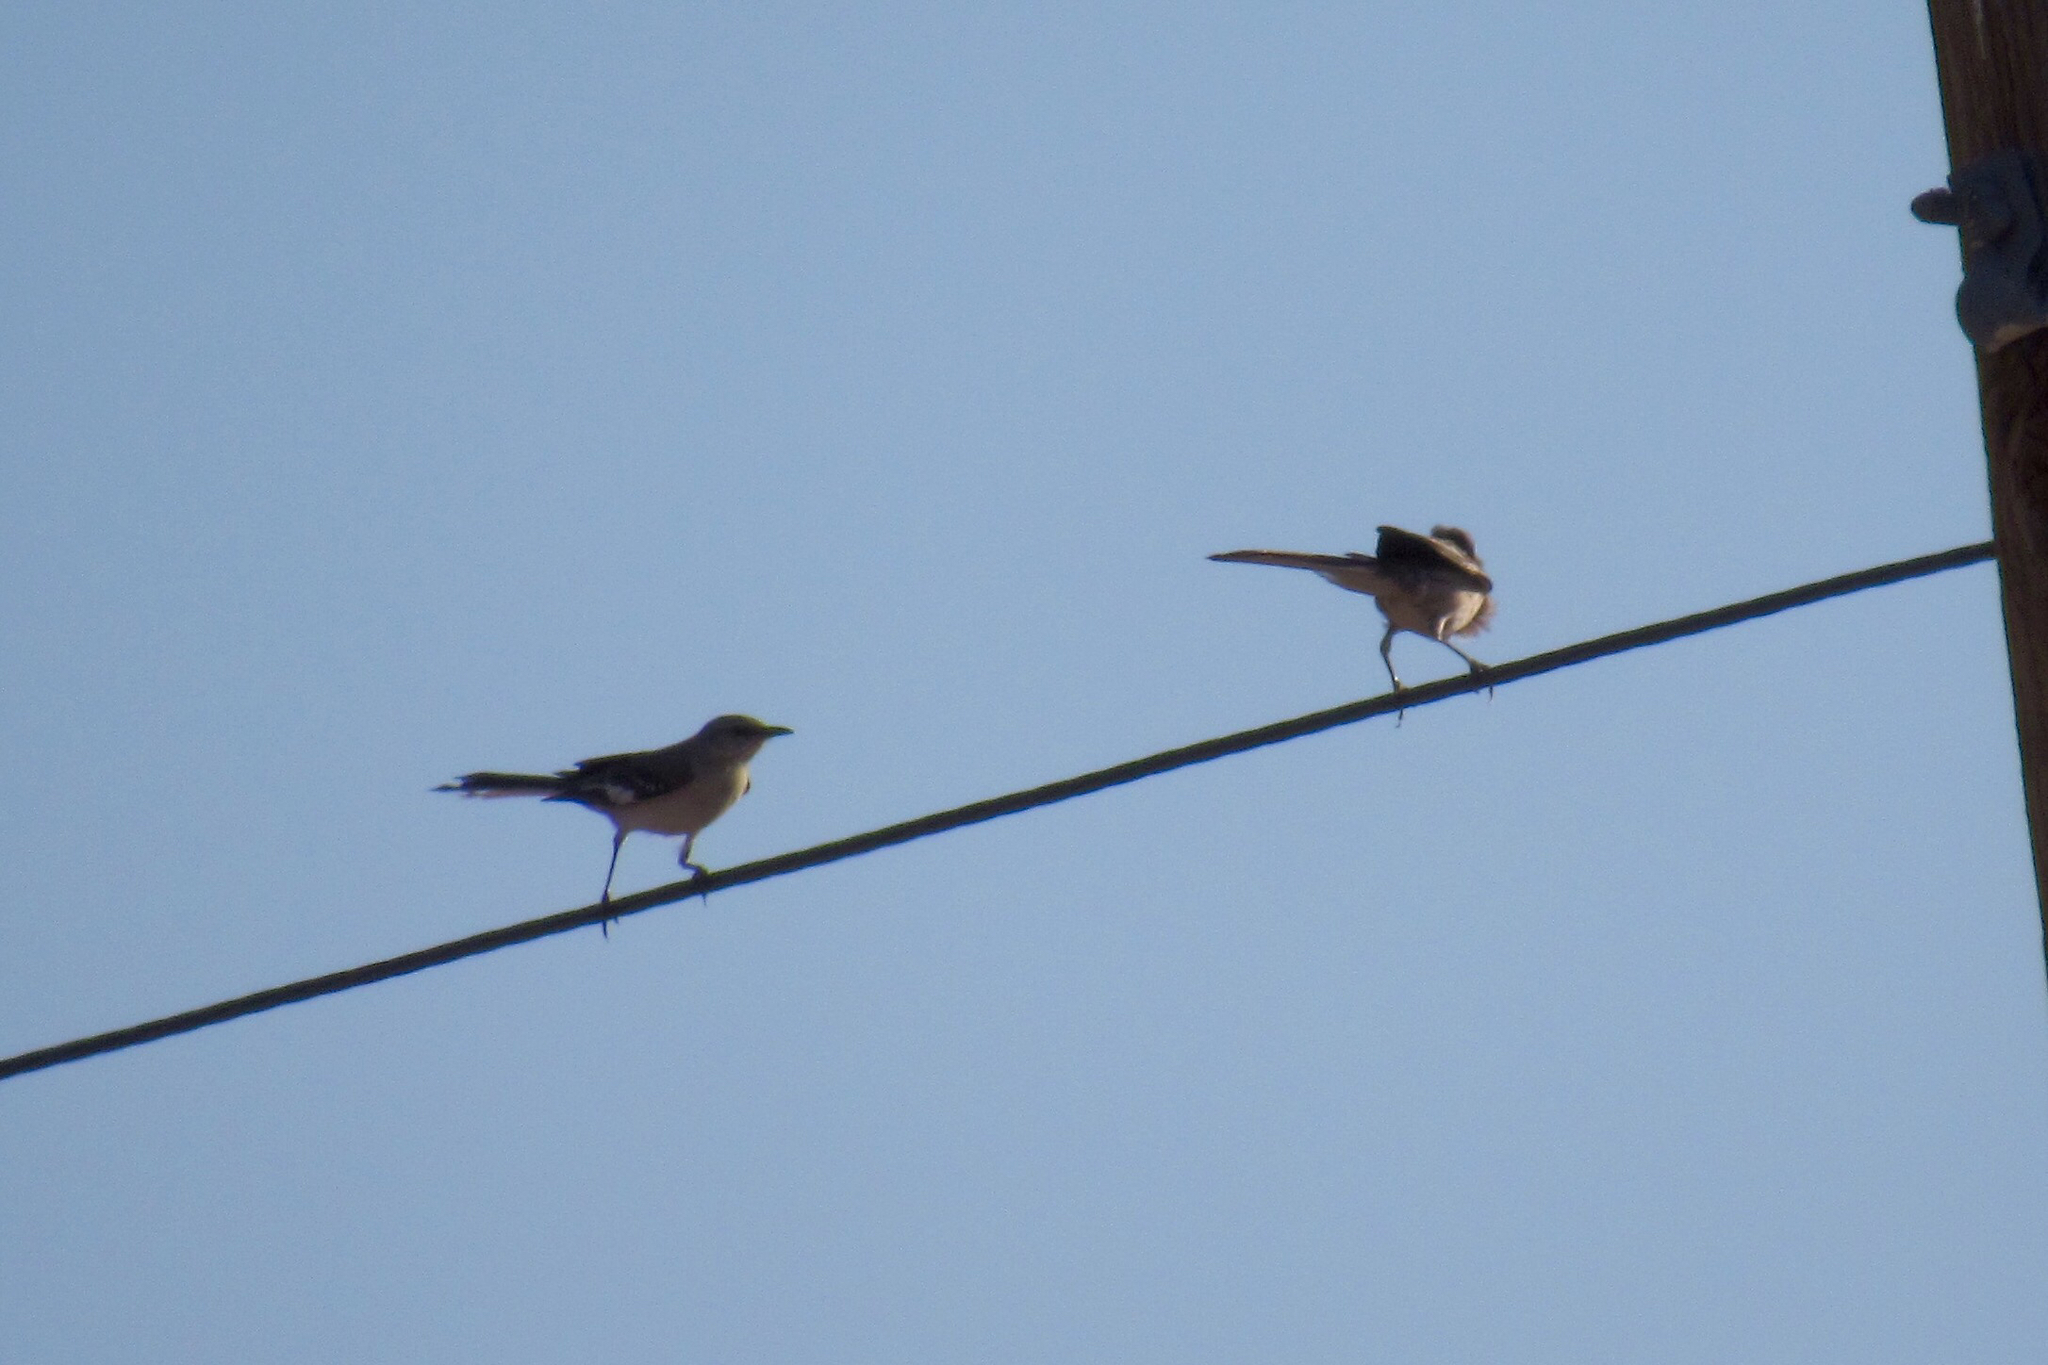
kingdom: Animalia
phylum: Chordata
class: Aves
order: Passeriformes
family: Mimidae
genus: Mimus
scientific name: Mimus polyglottos
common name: Northern mockingbird
